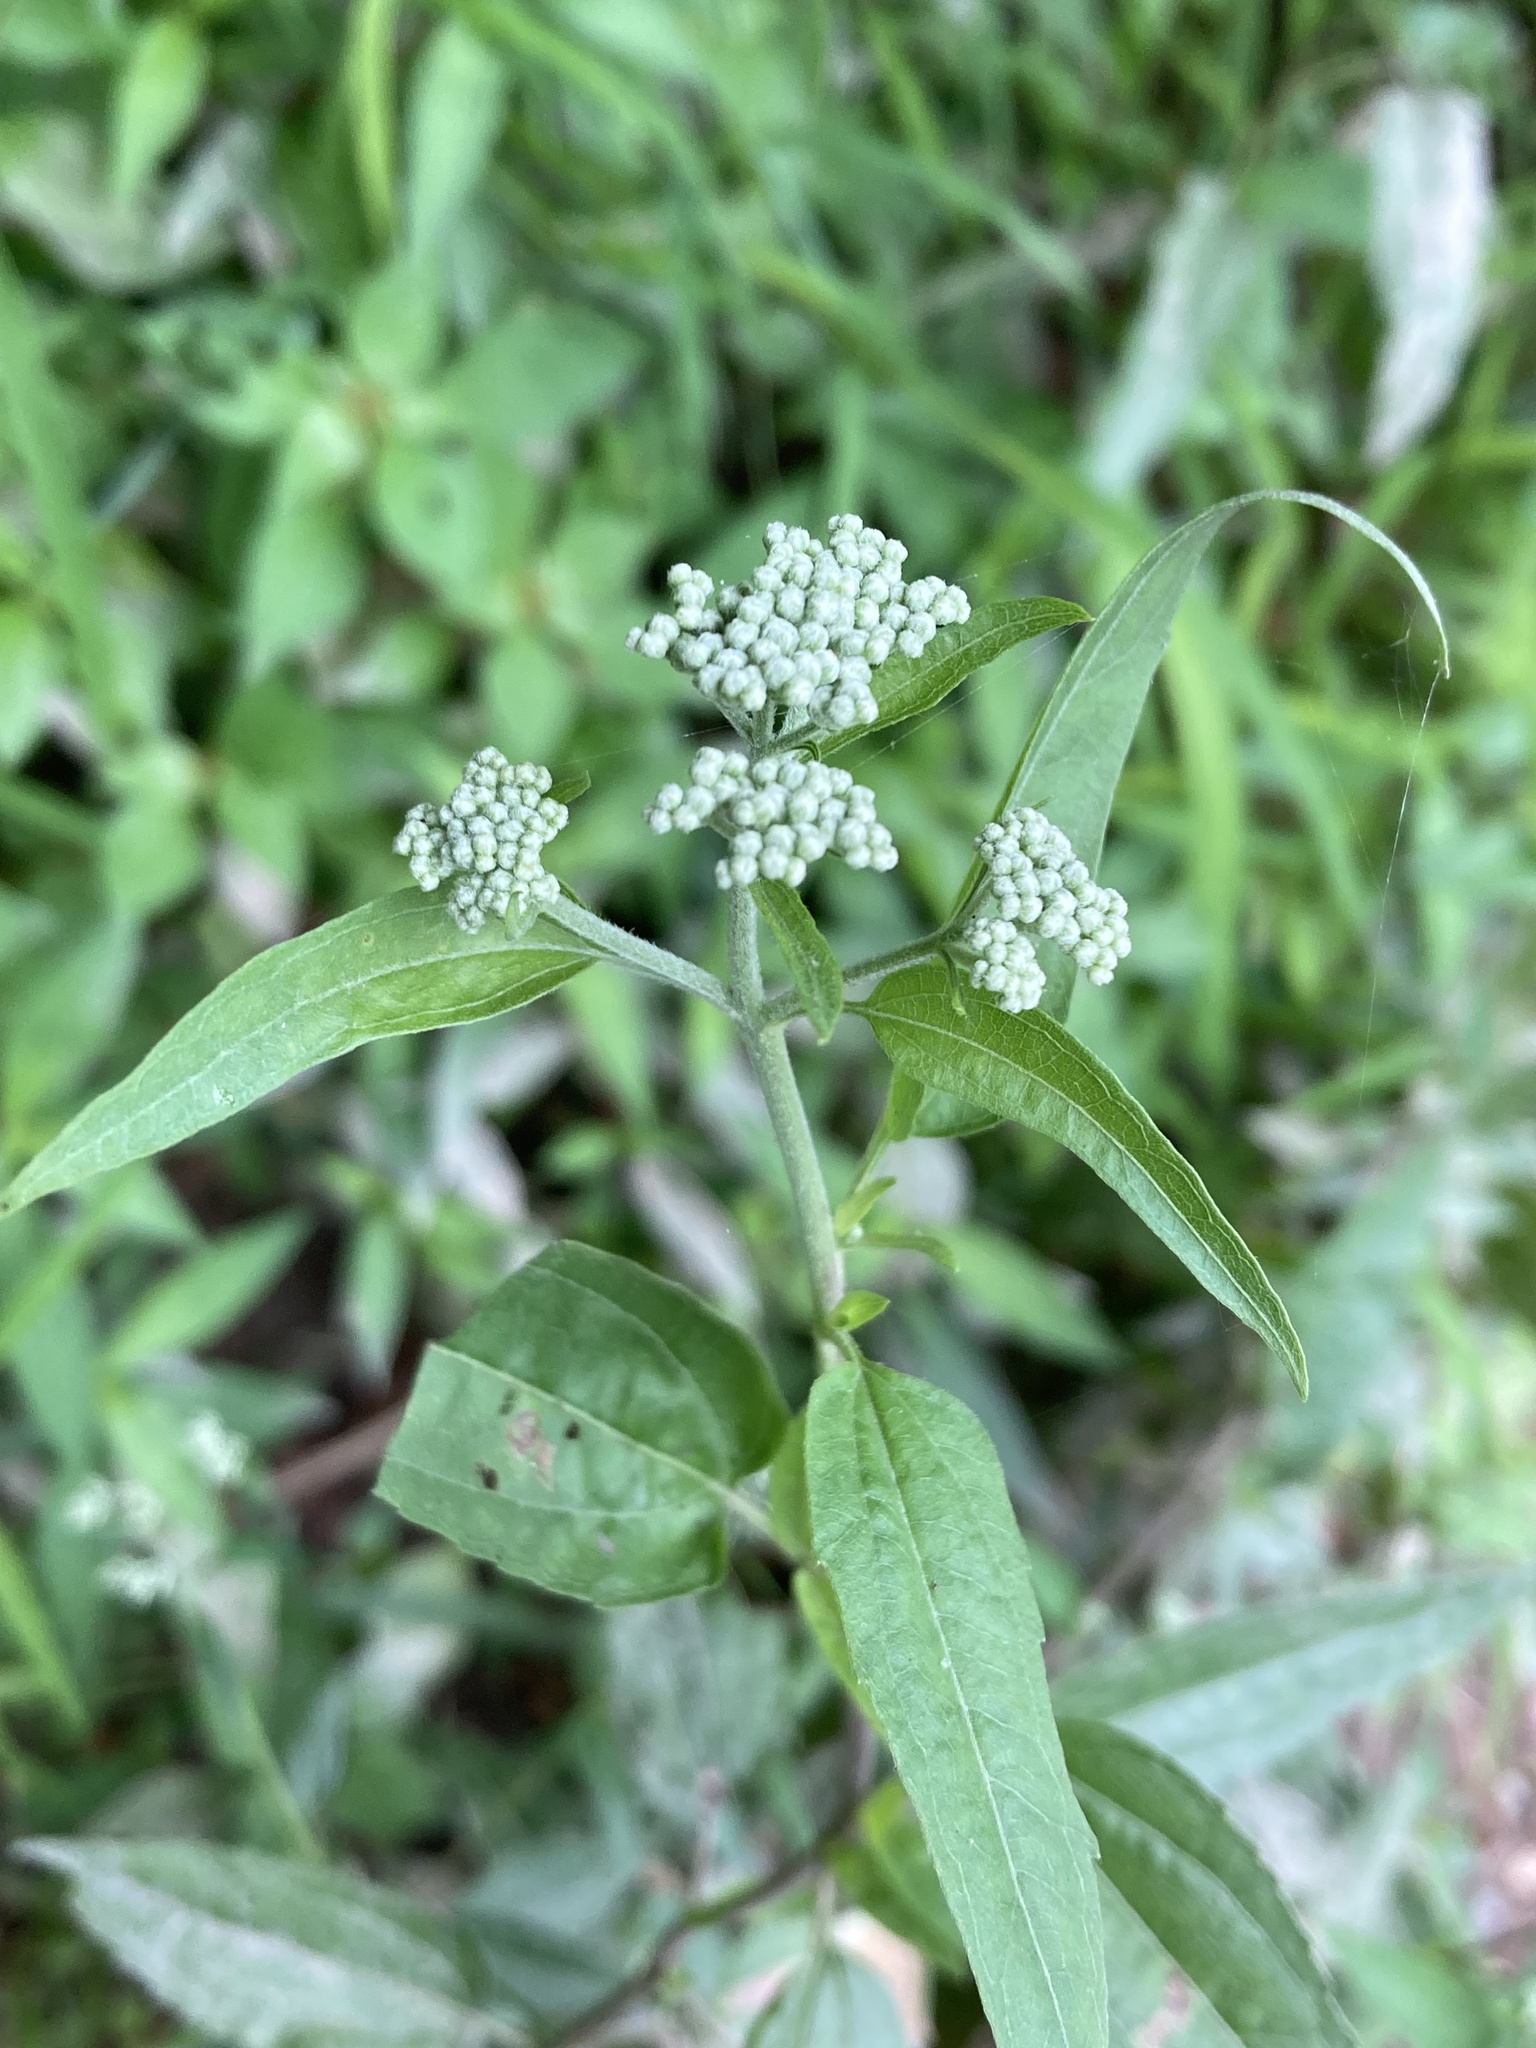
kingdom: Plantae
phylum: Tracheophyta
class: Magnoliopsida
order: Asterales
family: Asteraceae
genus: Eupatorium
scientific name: Eupatorium serotinum
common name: Late boneset
